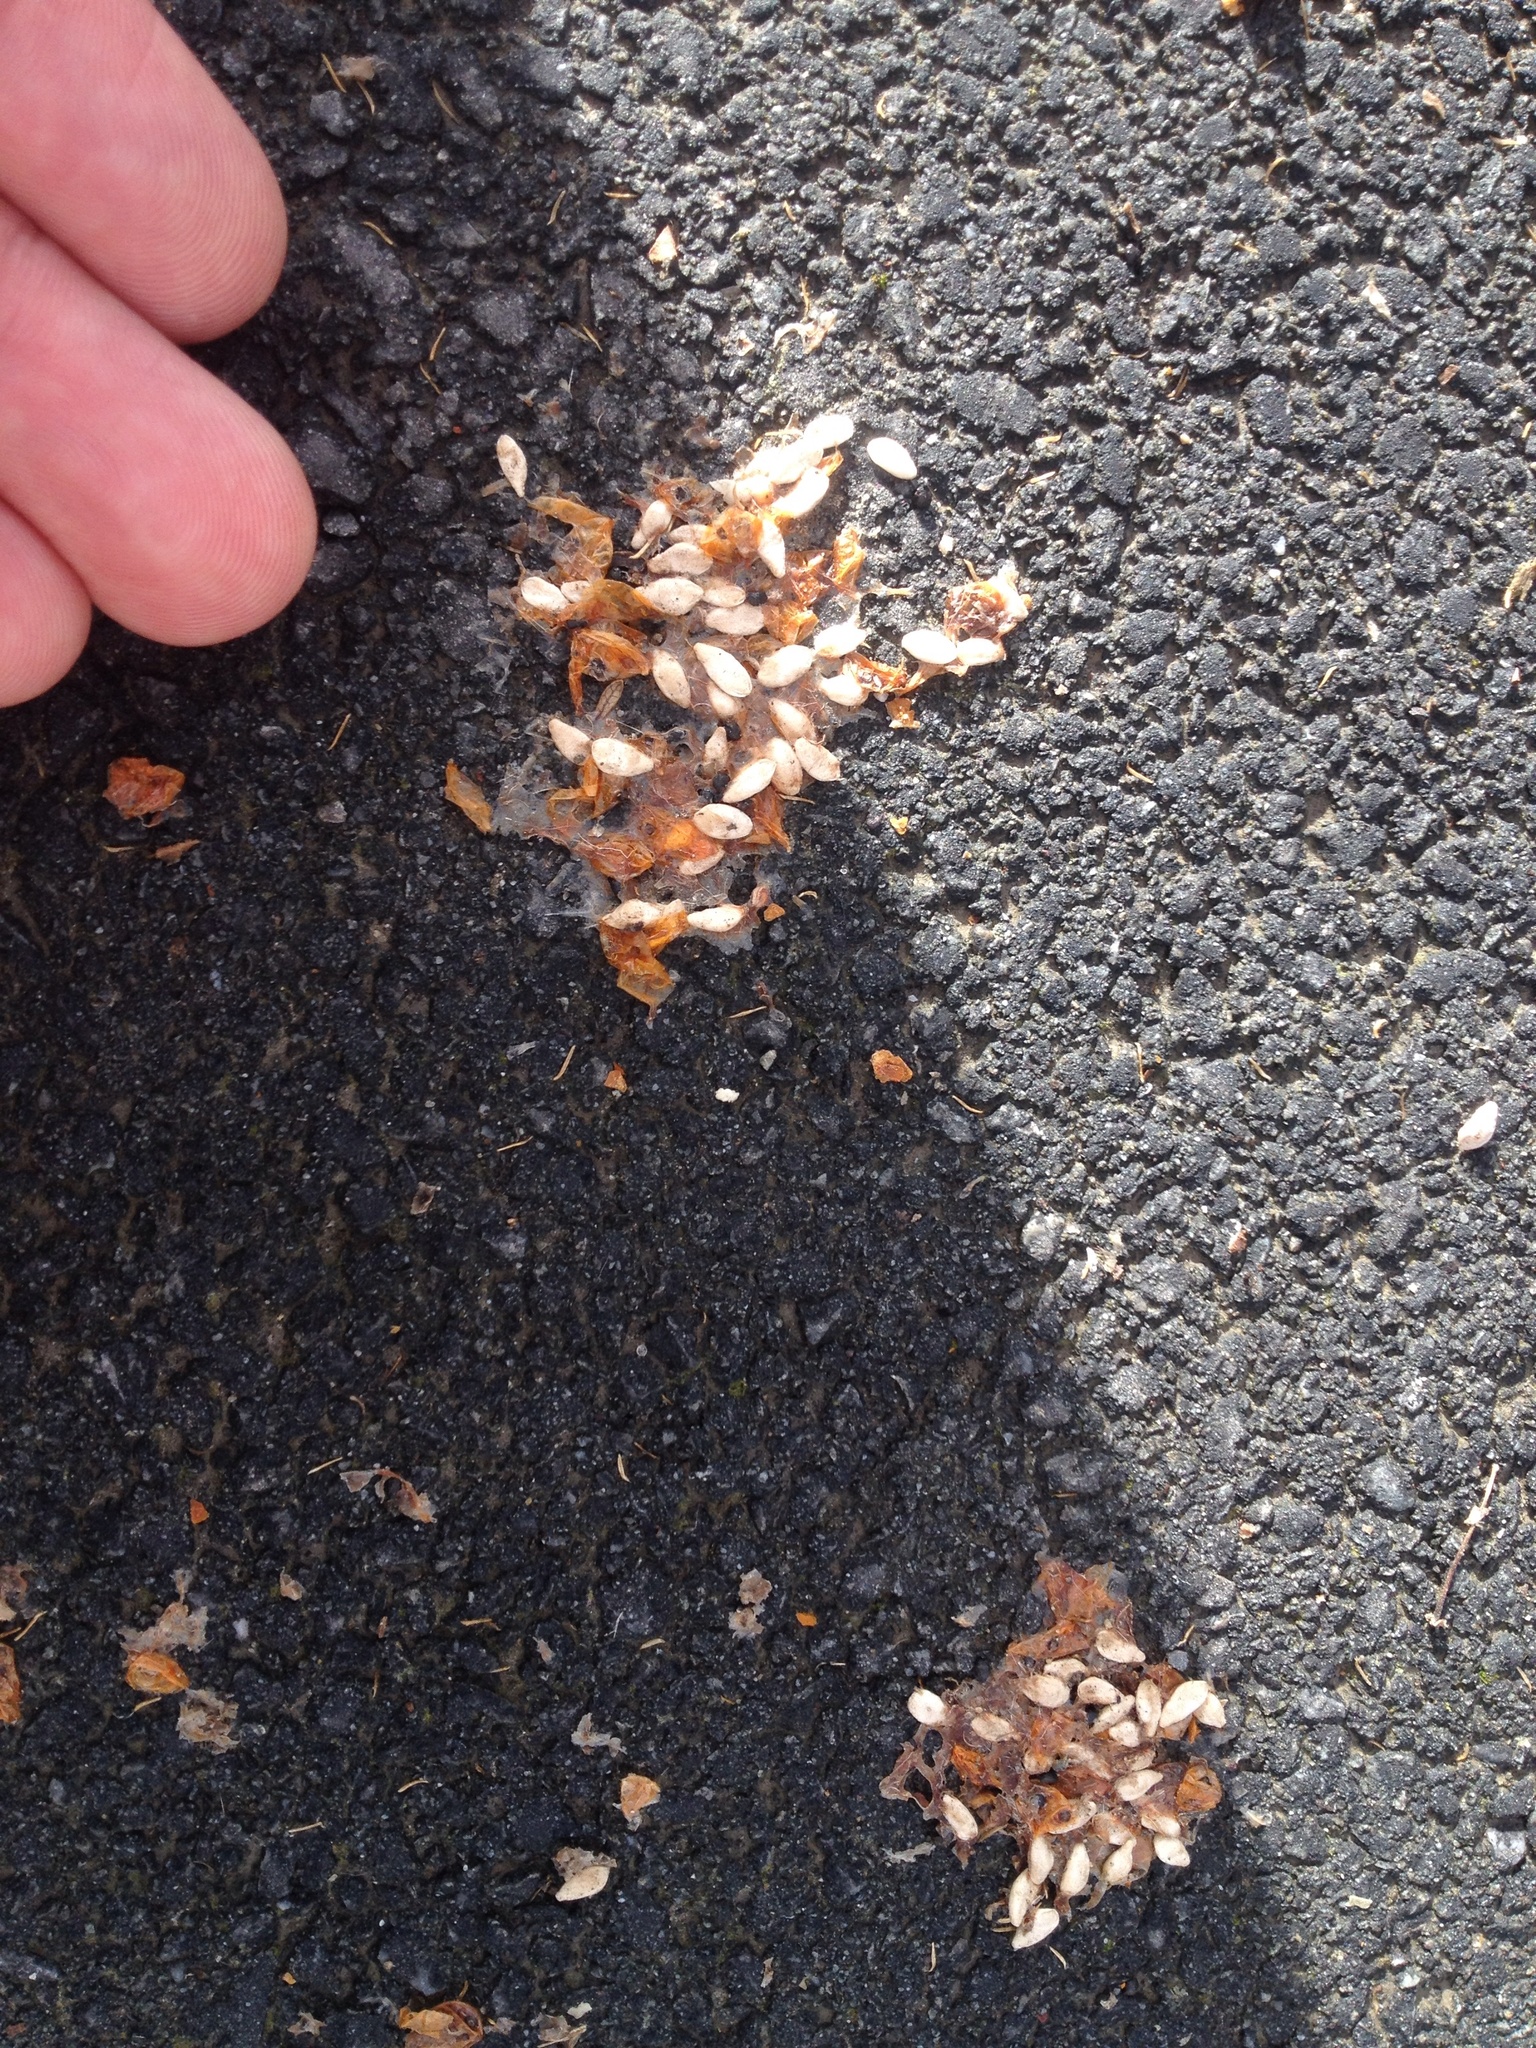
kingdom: Animalia
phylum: Chordata
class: Aves
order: Columbiformes
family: Columbidae
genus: Hemiphaga
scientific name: Hemiphaga novaeseelandiae
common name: New zealand pigeon
